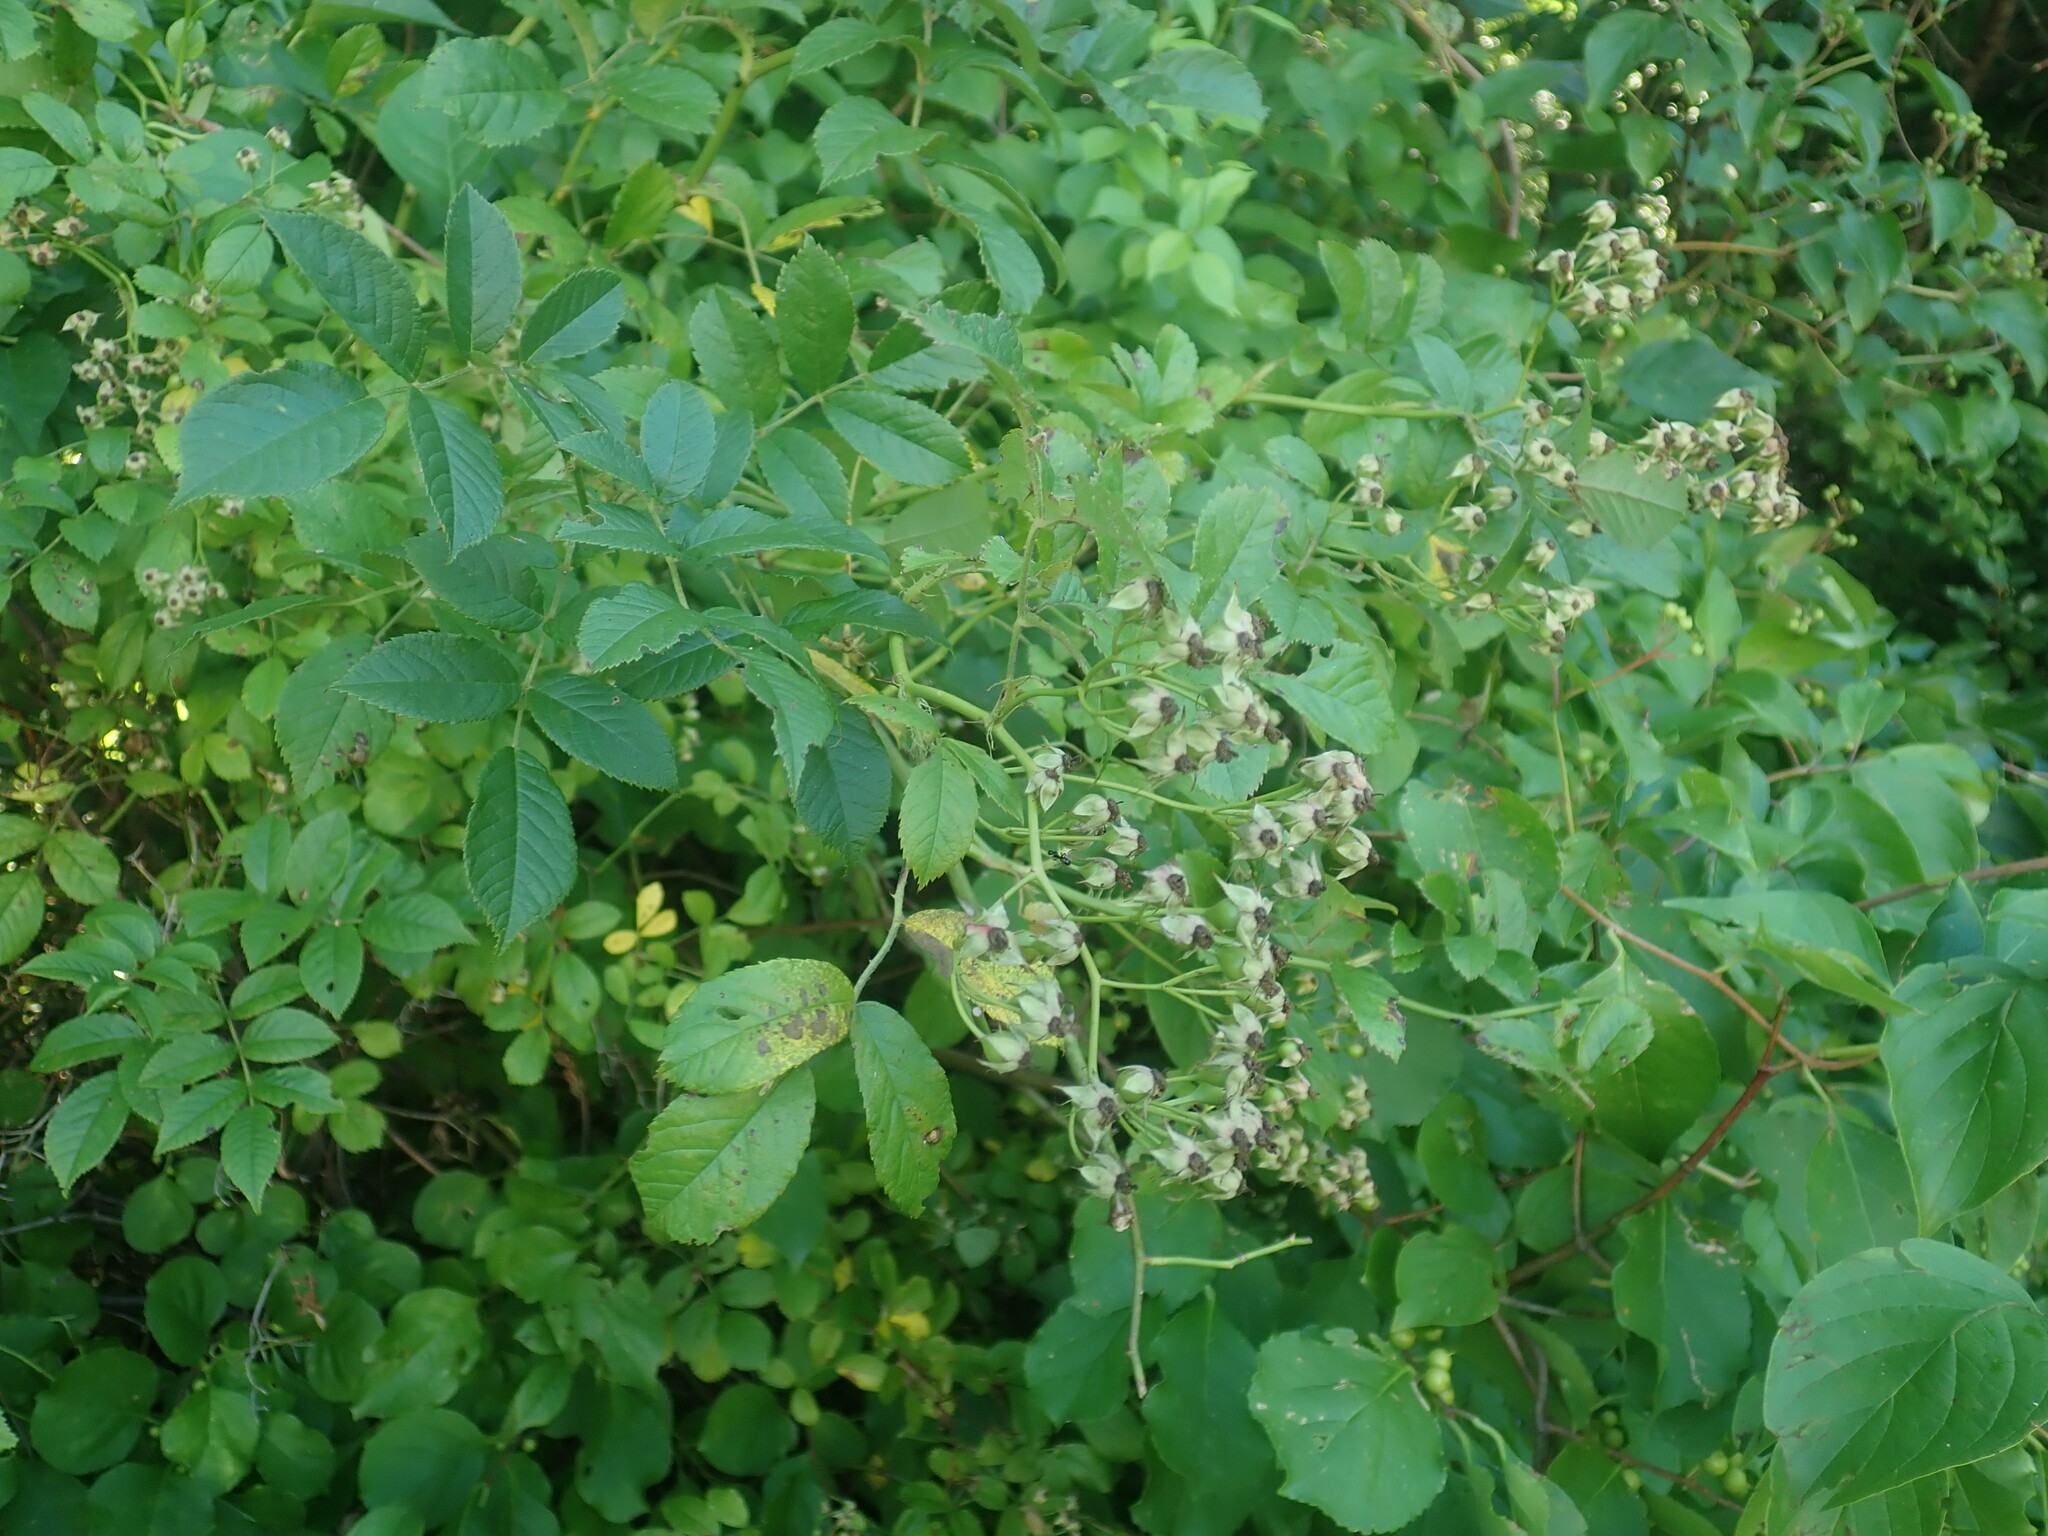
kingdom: Plantae
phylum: Tracheophyta
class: Magnoliopsida
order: Rosales
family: Rosaceae
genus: Rosa
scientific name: Rosa multiflora
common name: Multiflora rose
